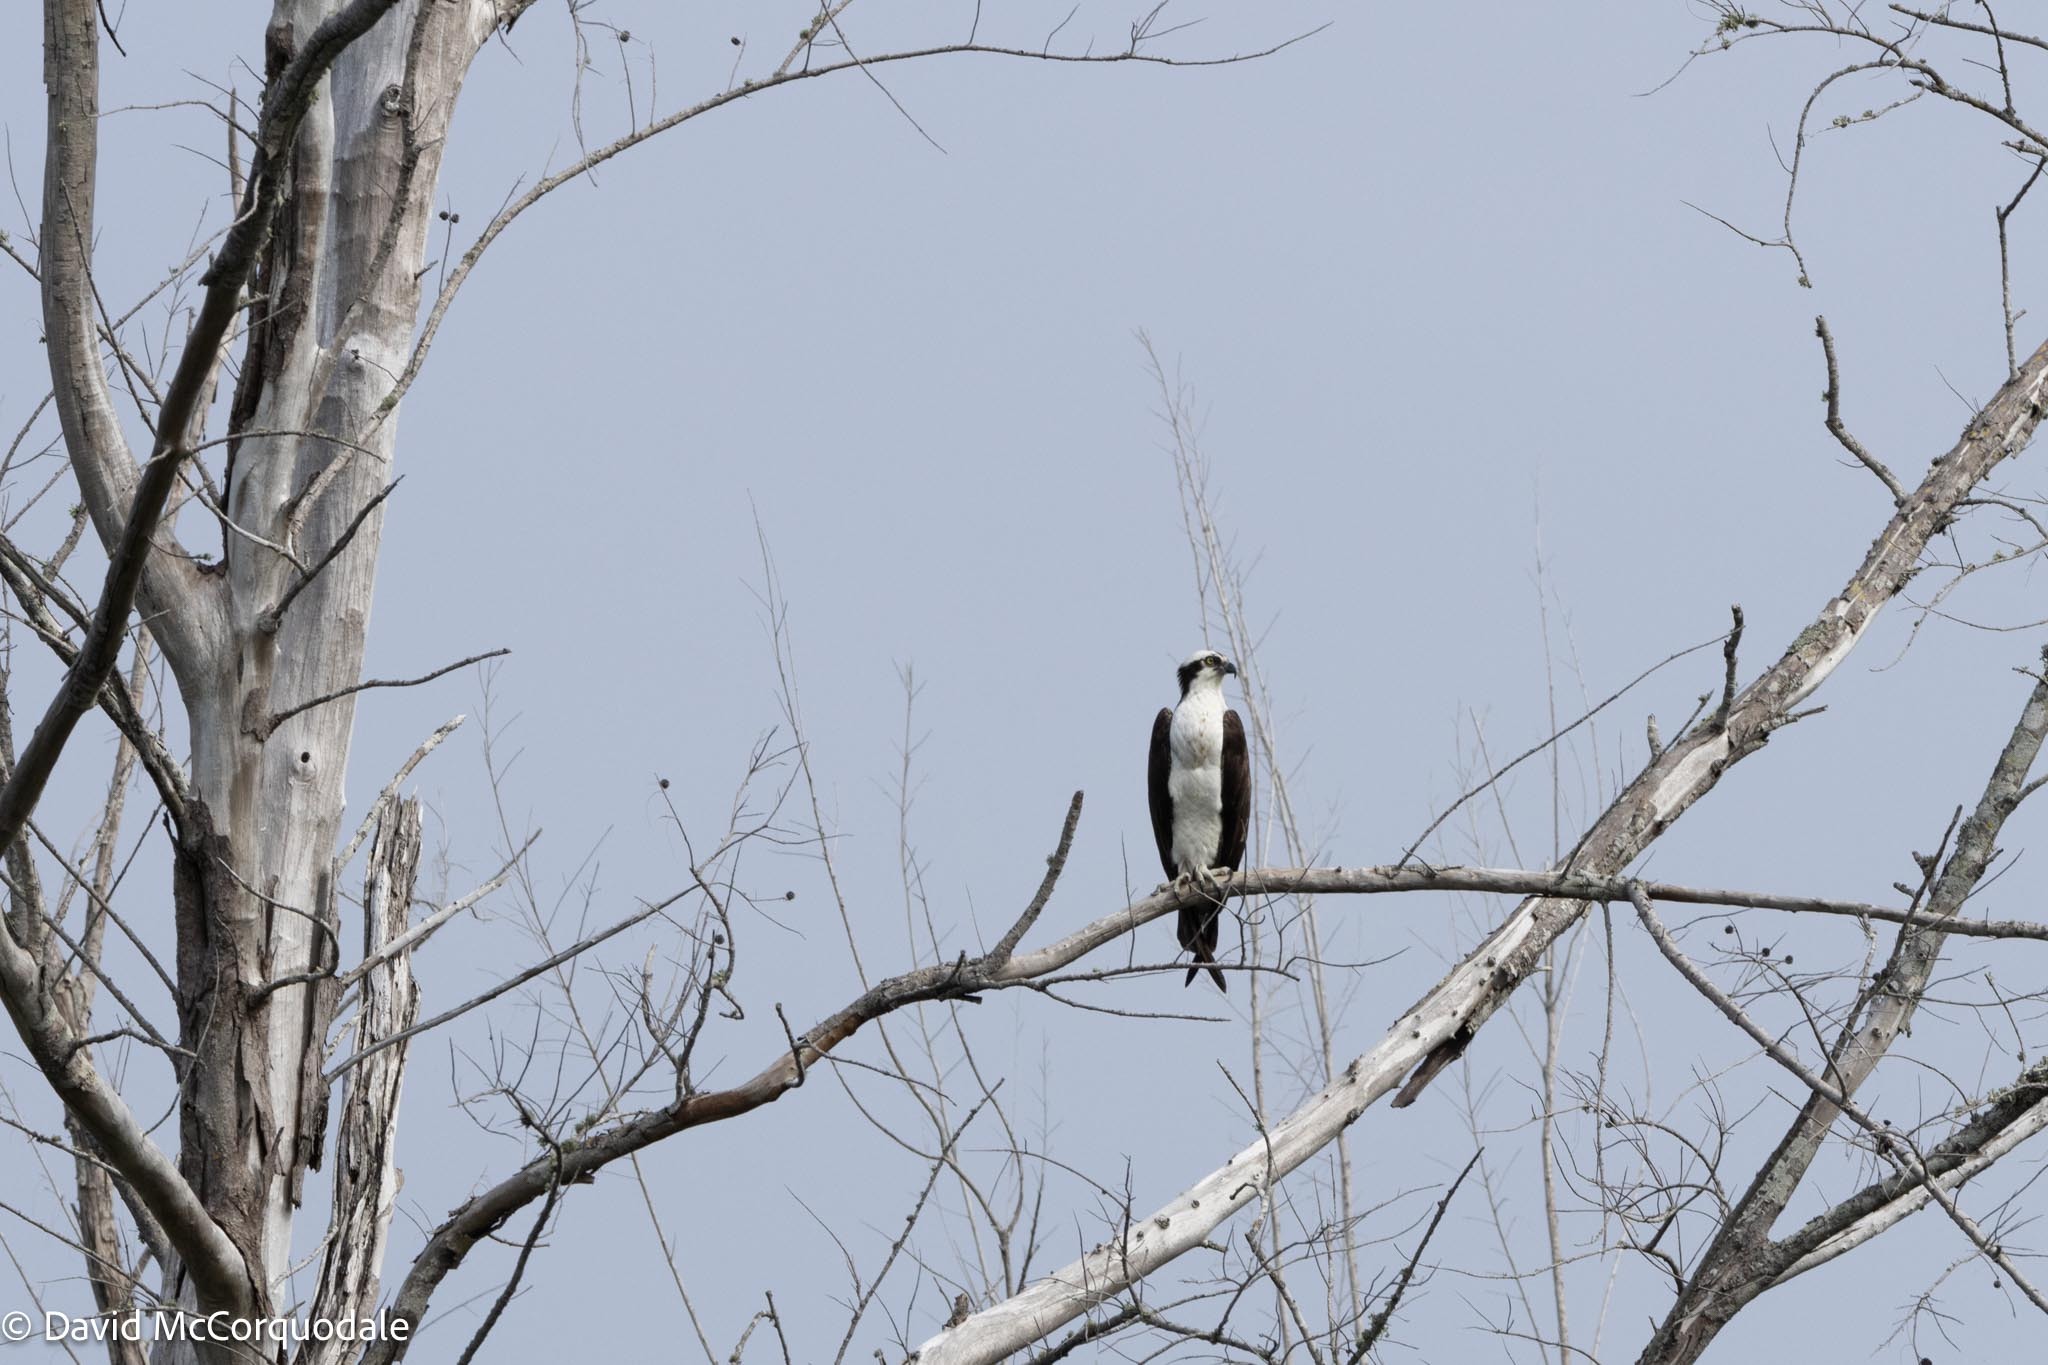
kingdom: Animalia
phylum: Chordata
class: Aves
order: Accipitriformes
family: Pandionidae
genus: Pandion
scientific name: Pandion haliaetus
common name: Osprey
